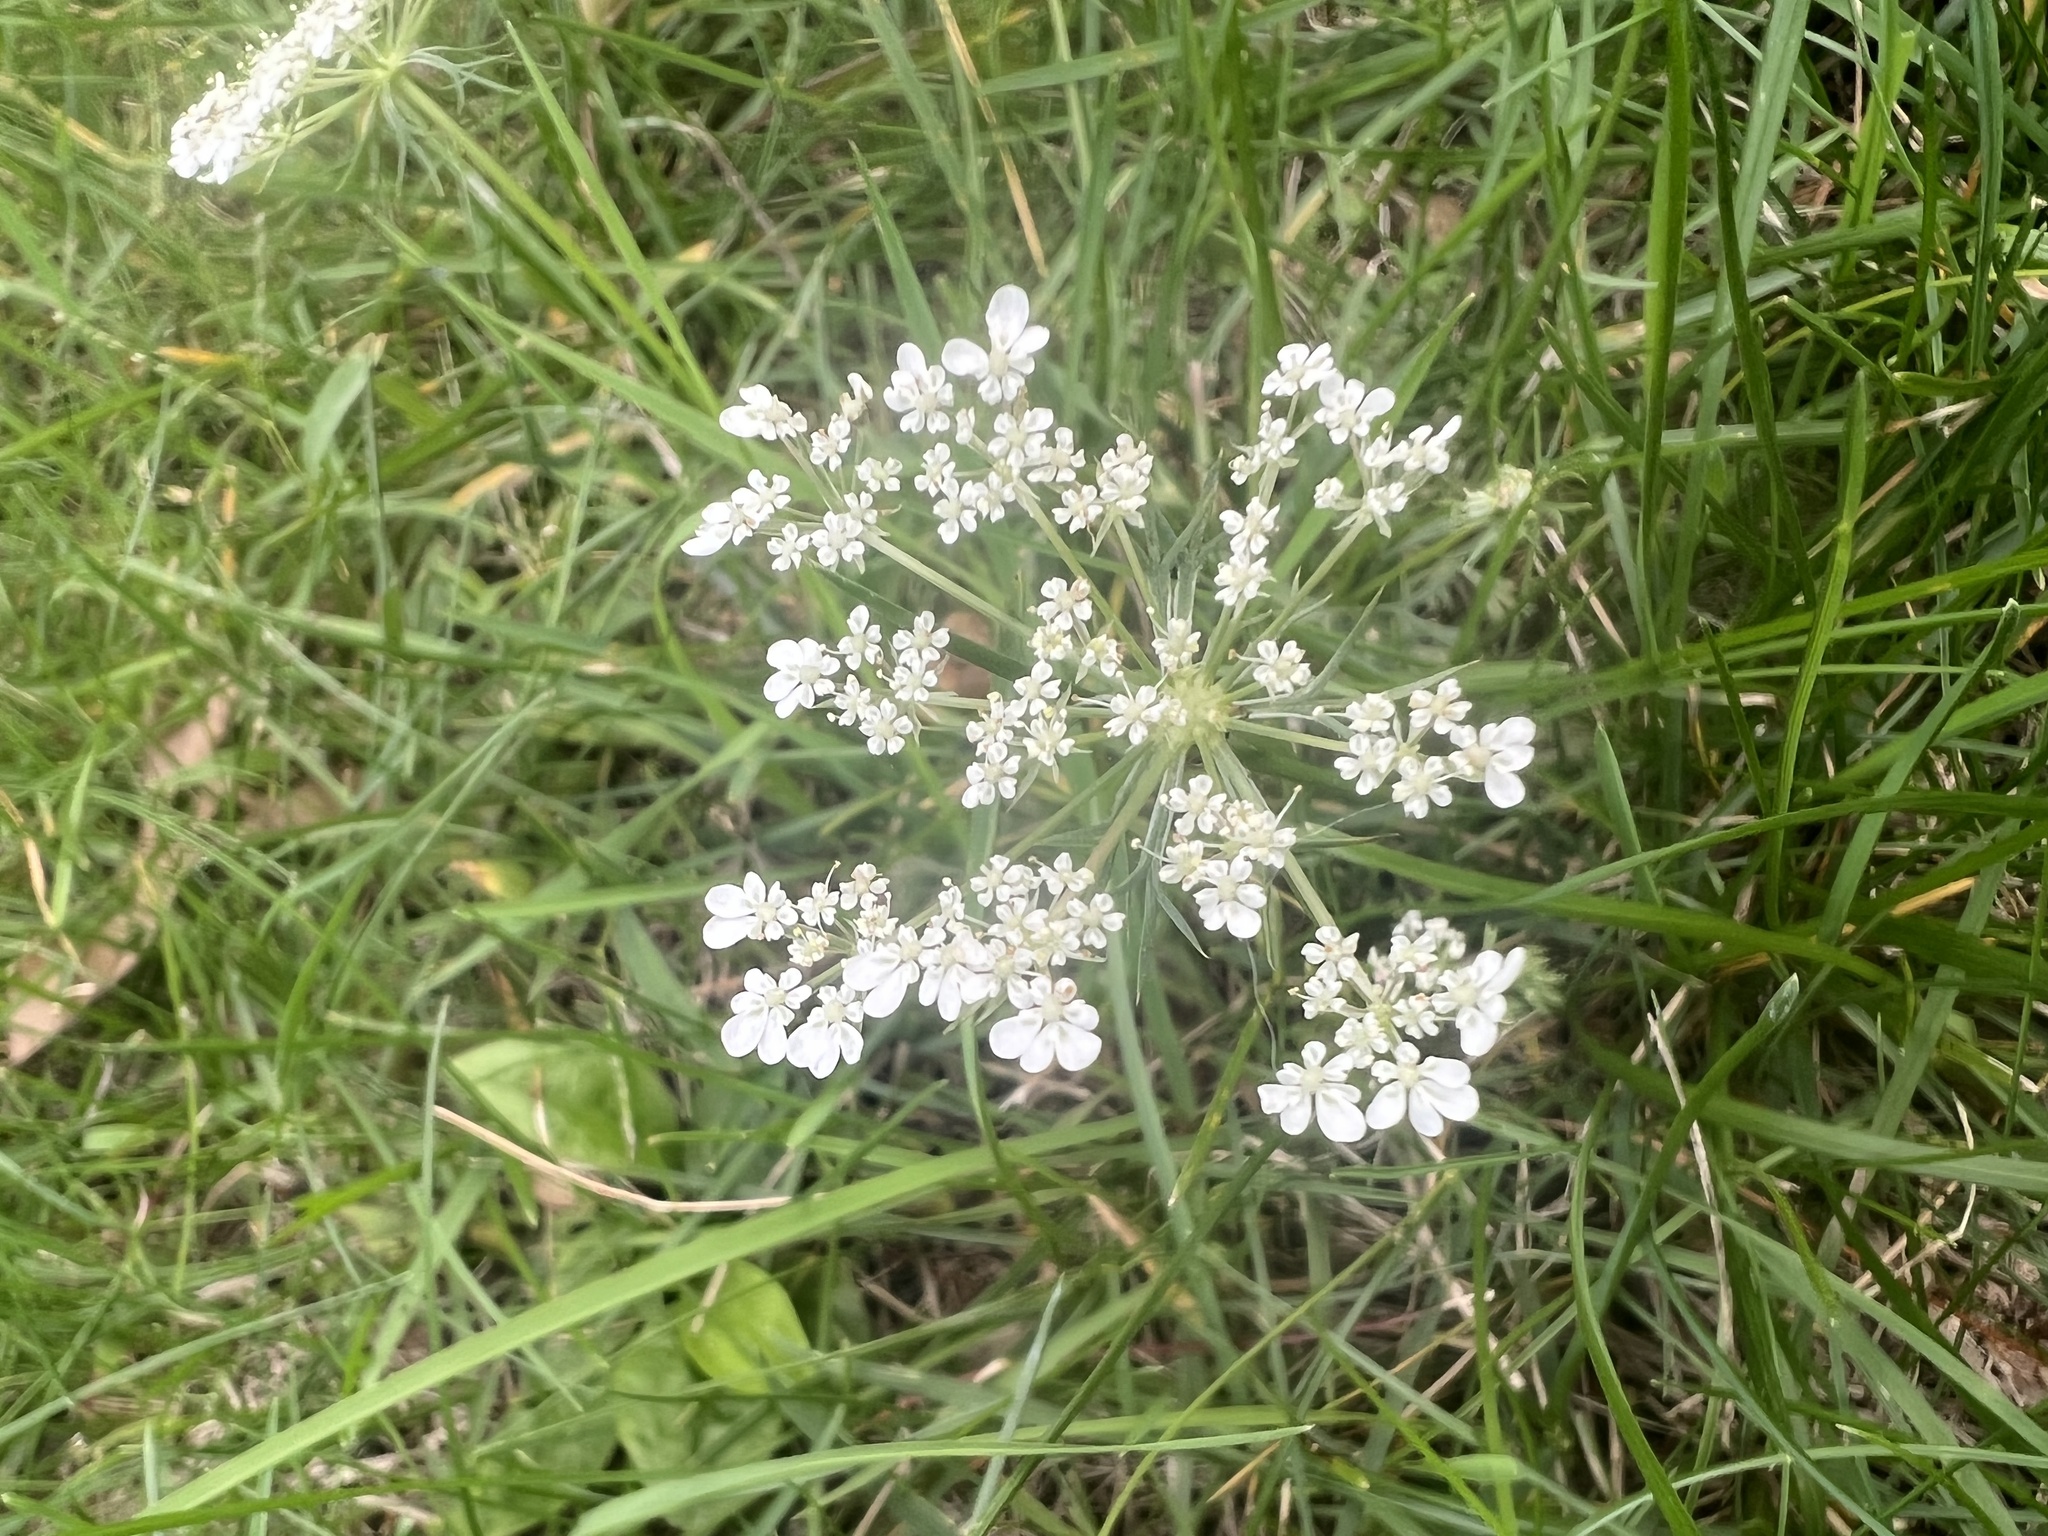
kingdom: Plantae
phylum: Tracheophyta
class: Magnoliopsida
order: Apiales
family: Apiaceae
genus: Daucus
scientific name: Daucus carota
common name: Wild carrot
